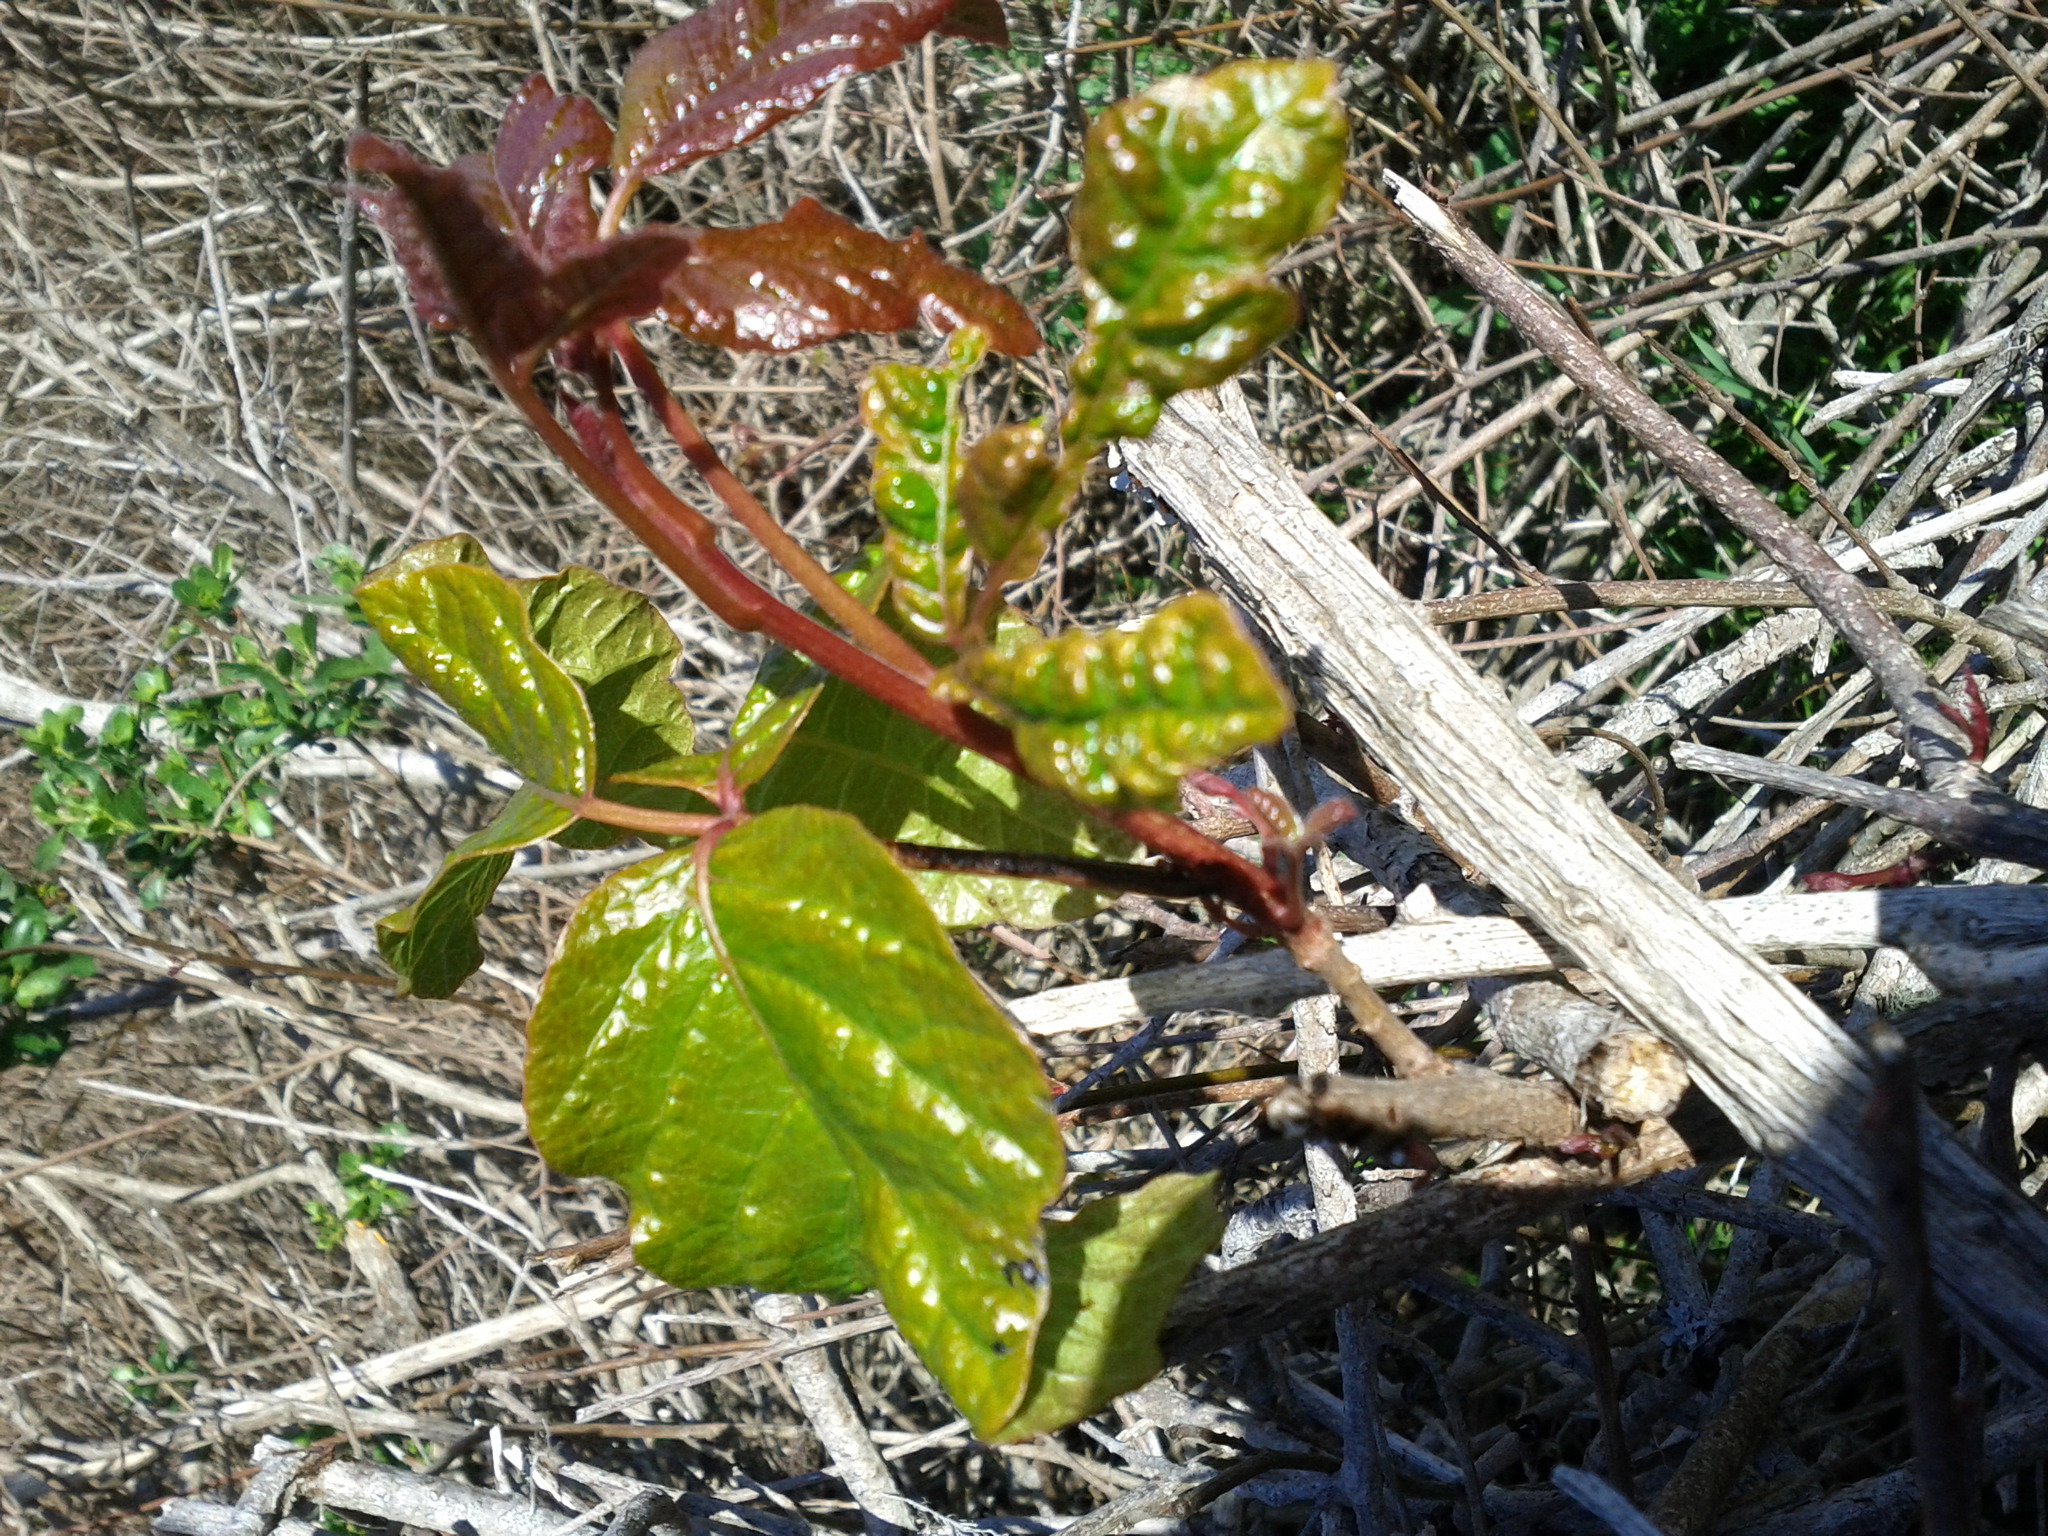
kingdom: Plantae
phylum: Tracheophyta
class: Magnoliopsida
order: Sapindales
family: Anacardiaceae
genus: Toxicodendron
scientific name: Toxicodendron diversilobum
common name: Pacific poison-oak
